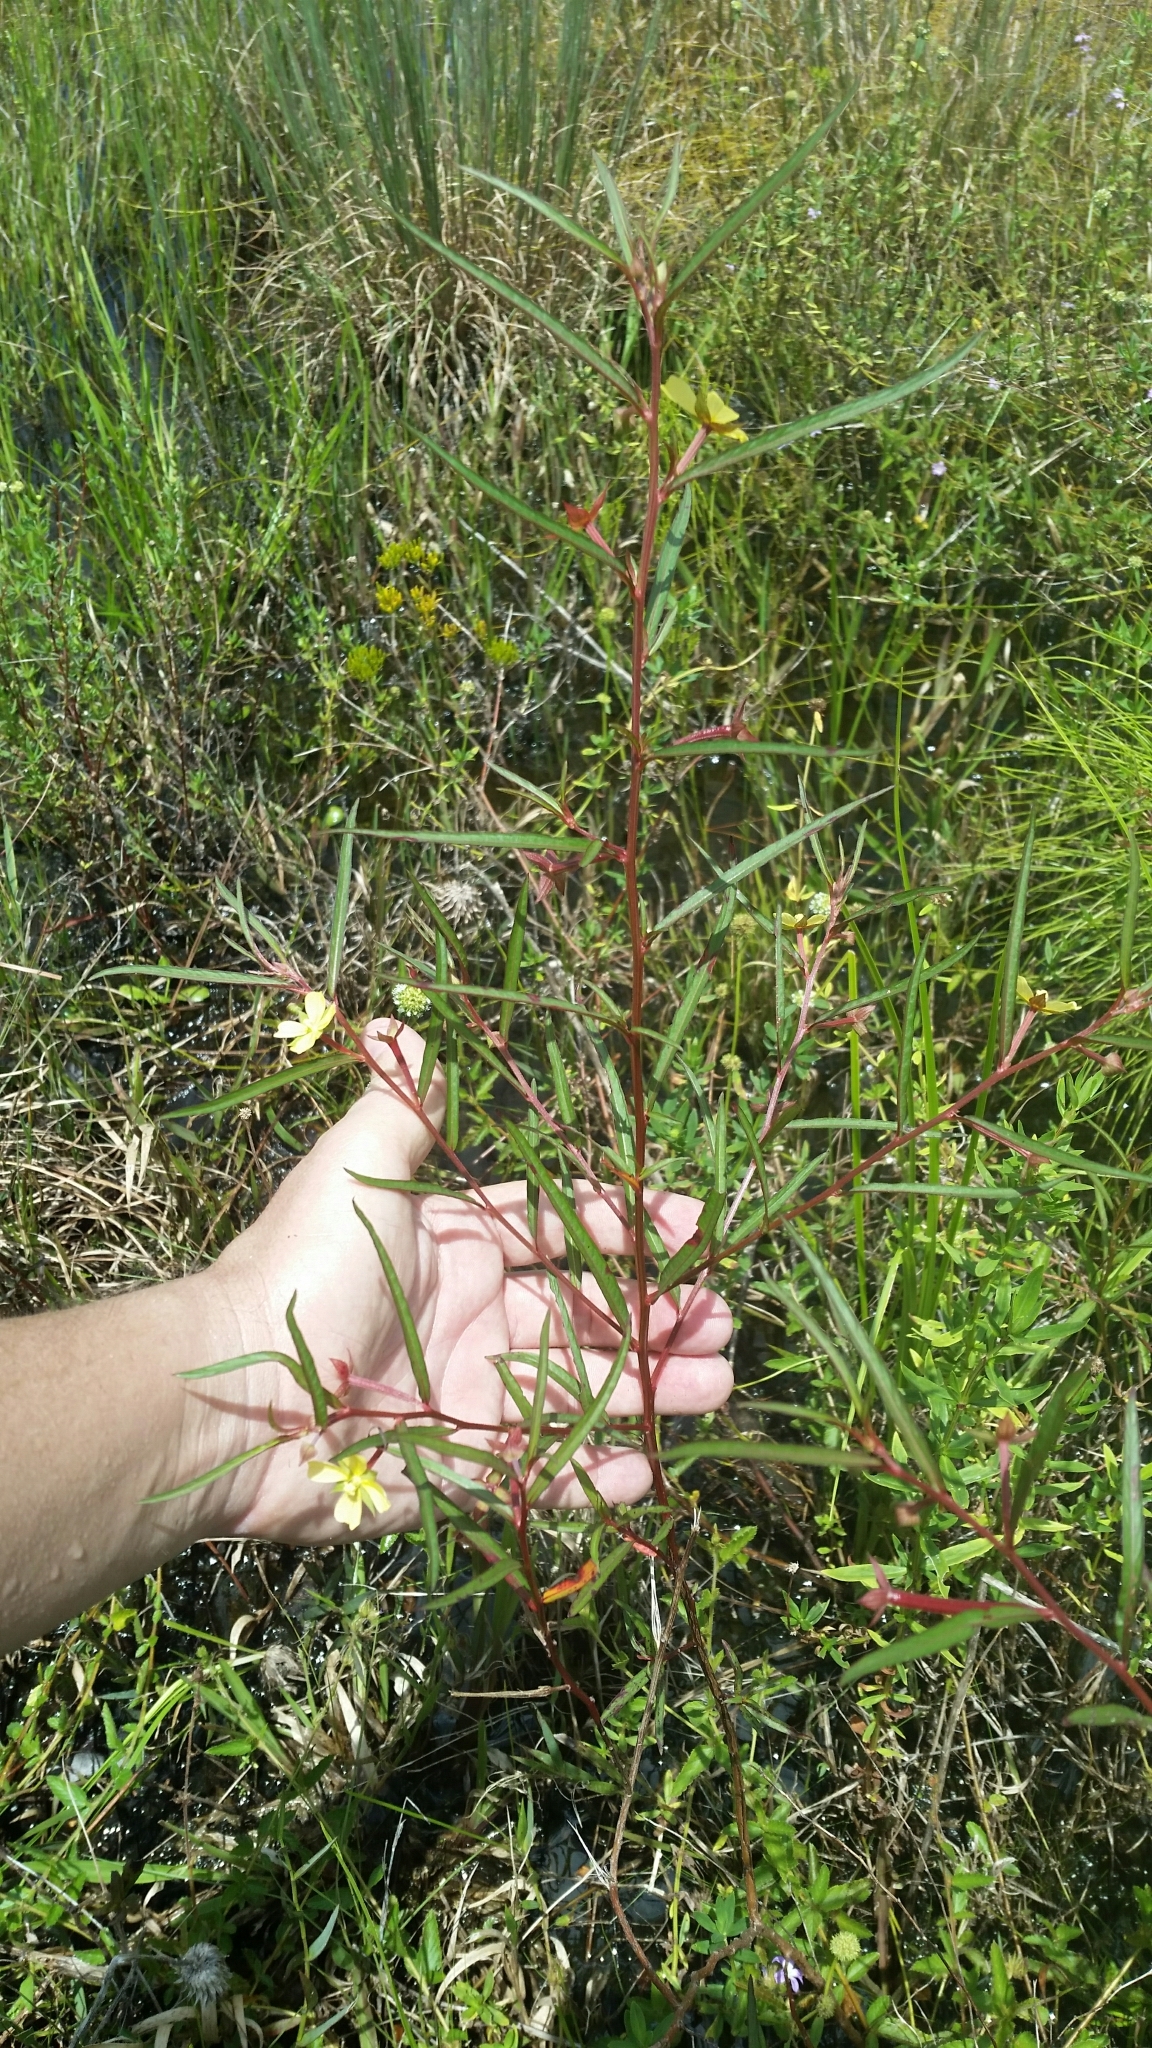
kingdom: Plantae
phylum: Tracheophyta
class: Magnoliopsida
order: Myrtales
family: Onagraceae
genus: Ludwigia
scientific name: Ludwigia octovalvis
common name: Water-primrose
